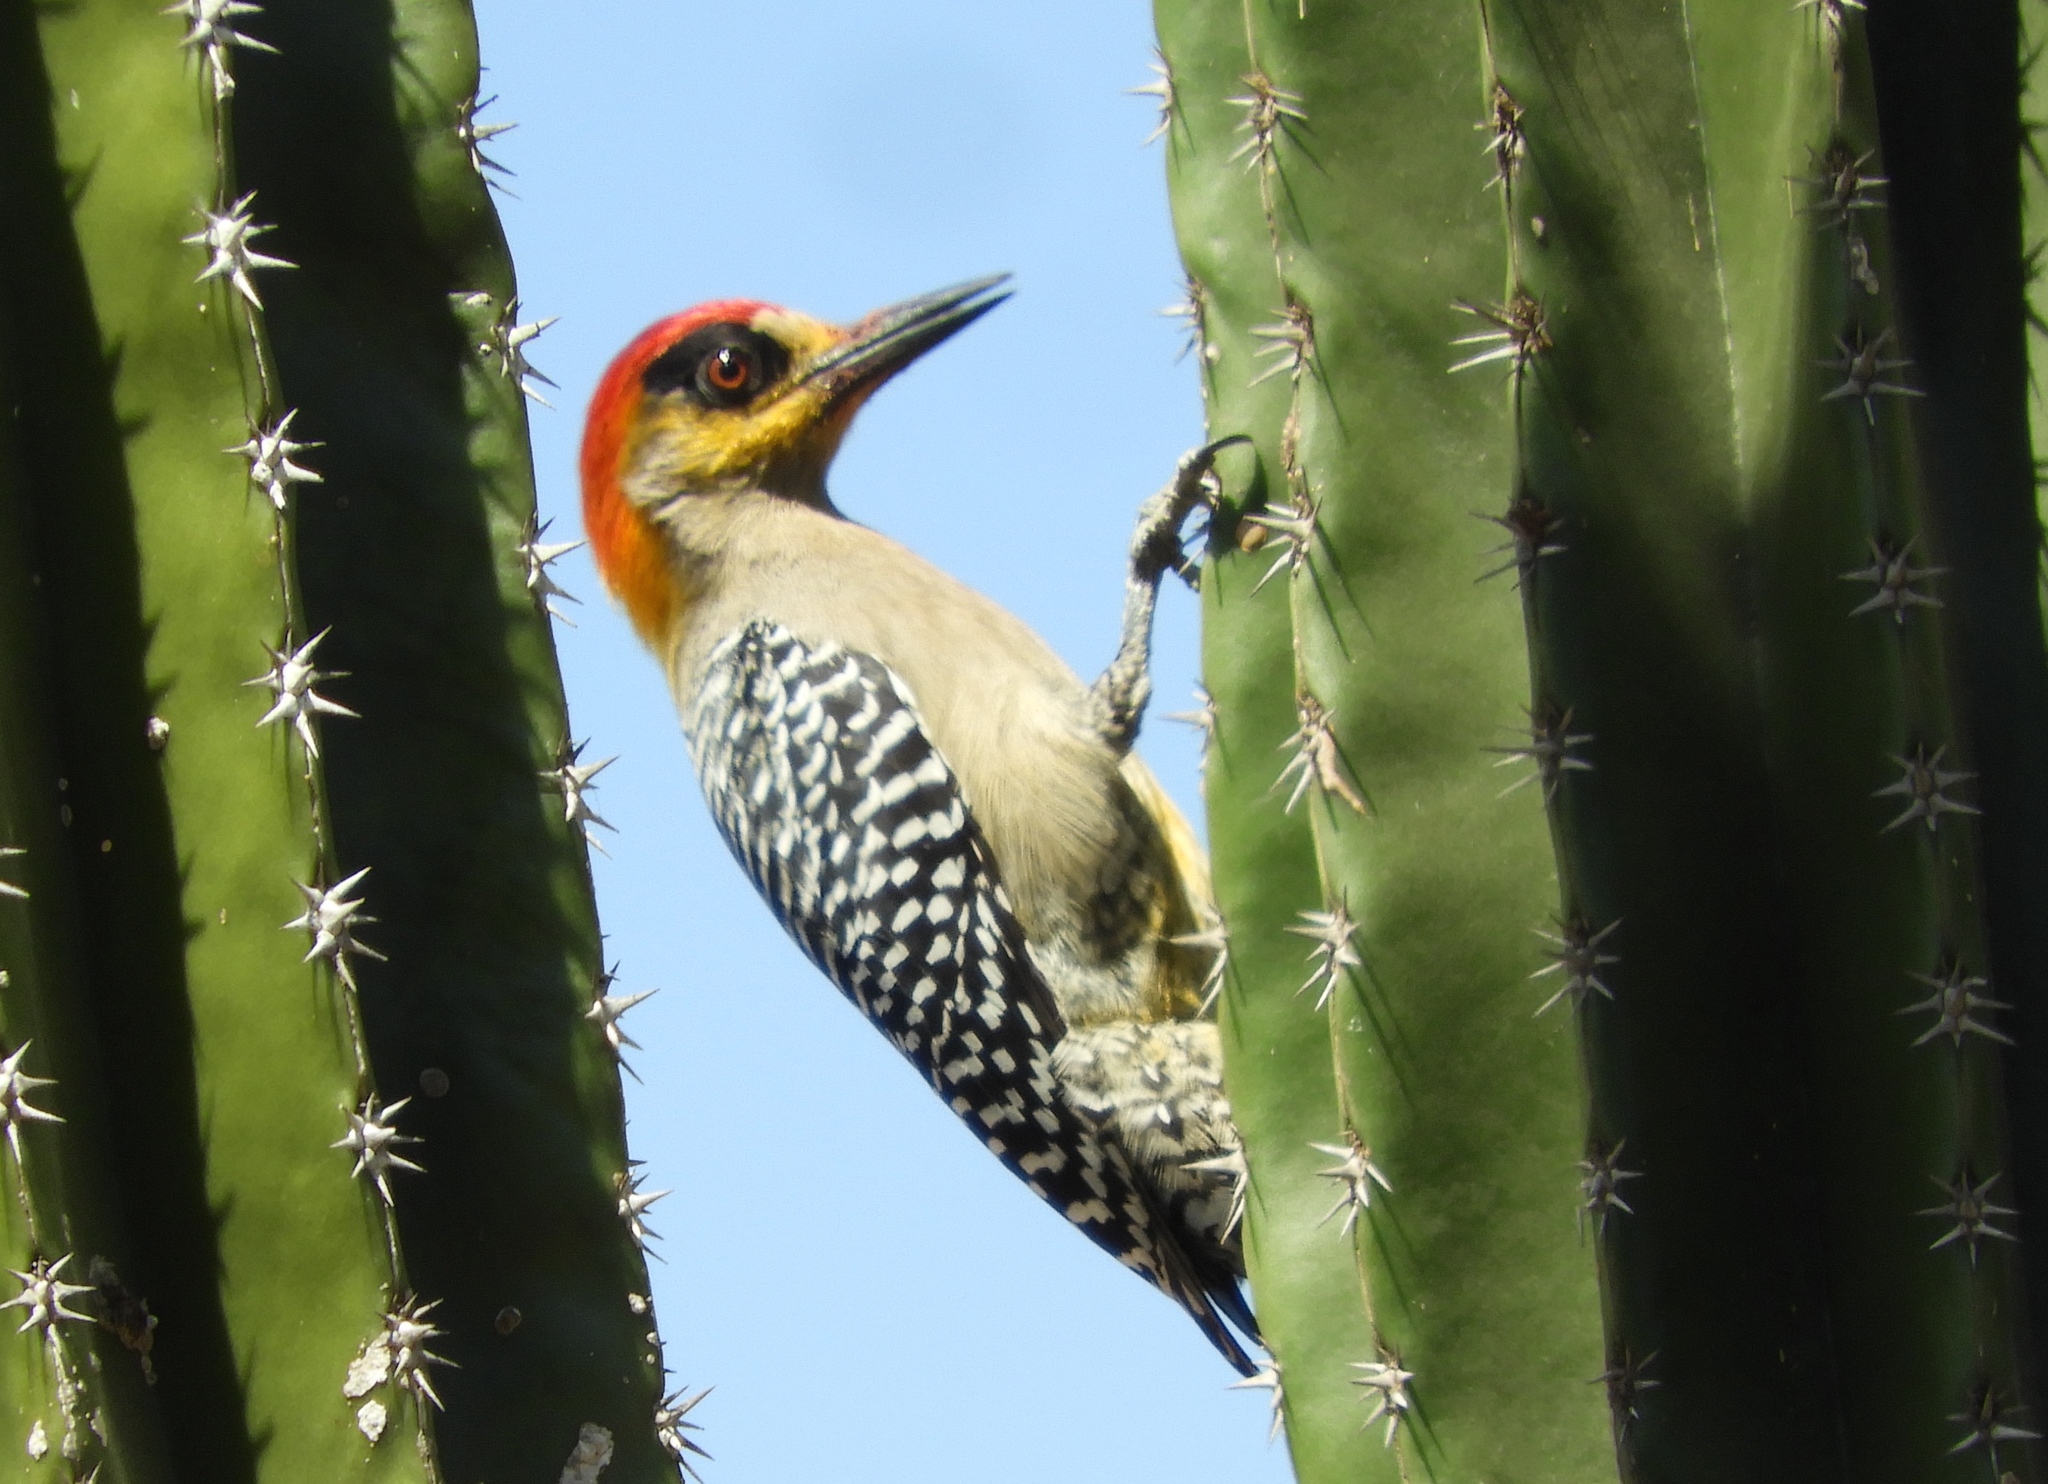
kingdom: Animalia
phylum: Chordata
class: Aves
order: Piciformes
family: Picidae
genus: Melanerpes
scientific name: Melanerpes chrysogenys
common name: Golden-cheeked woodpecker
